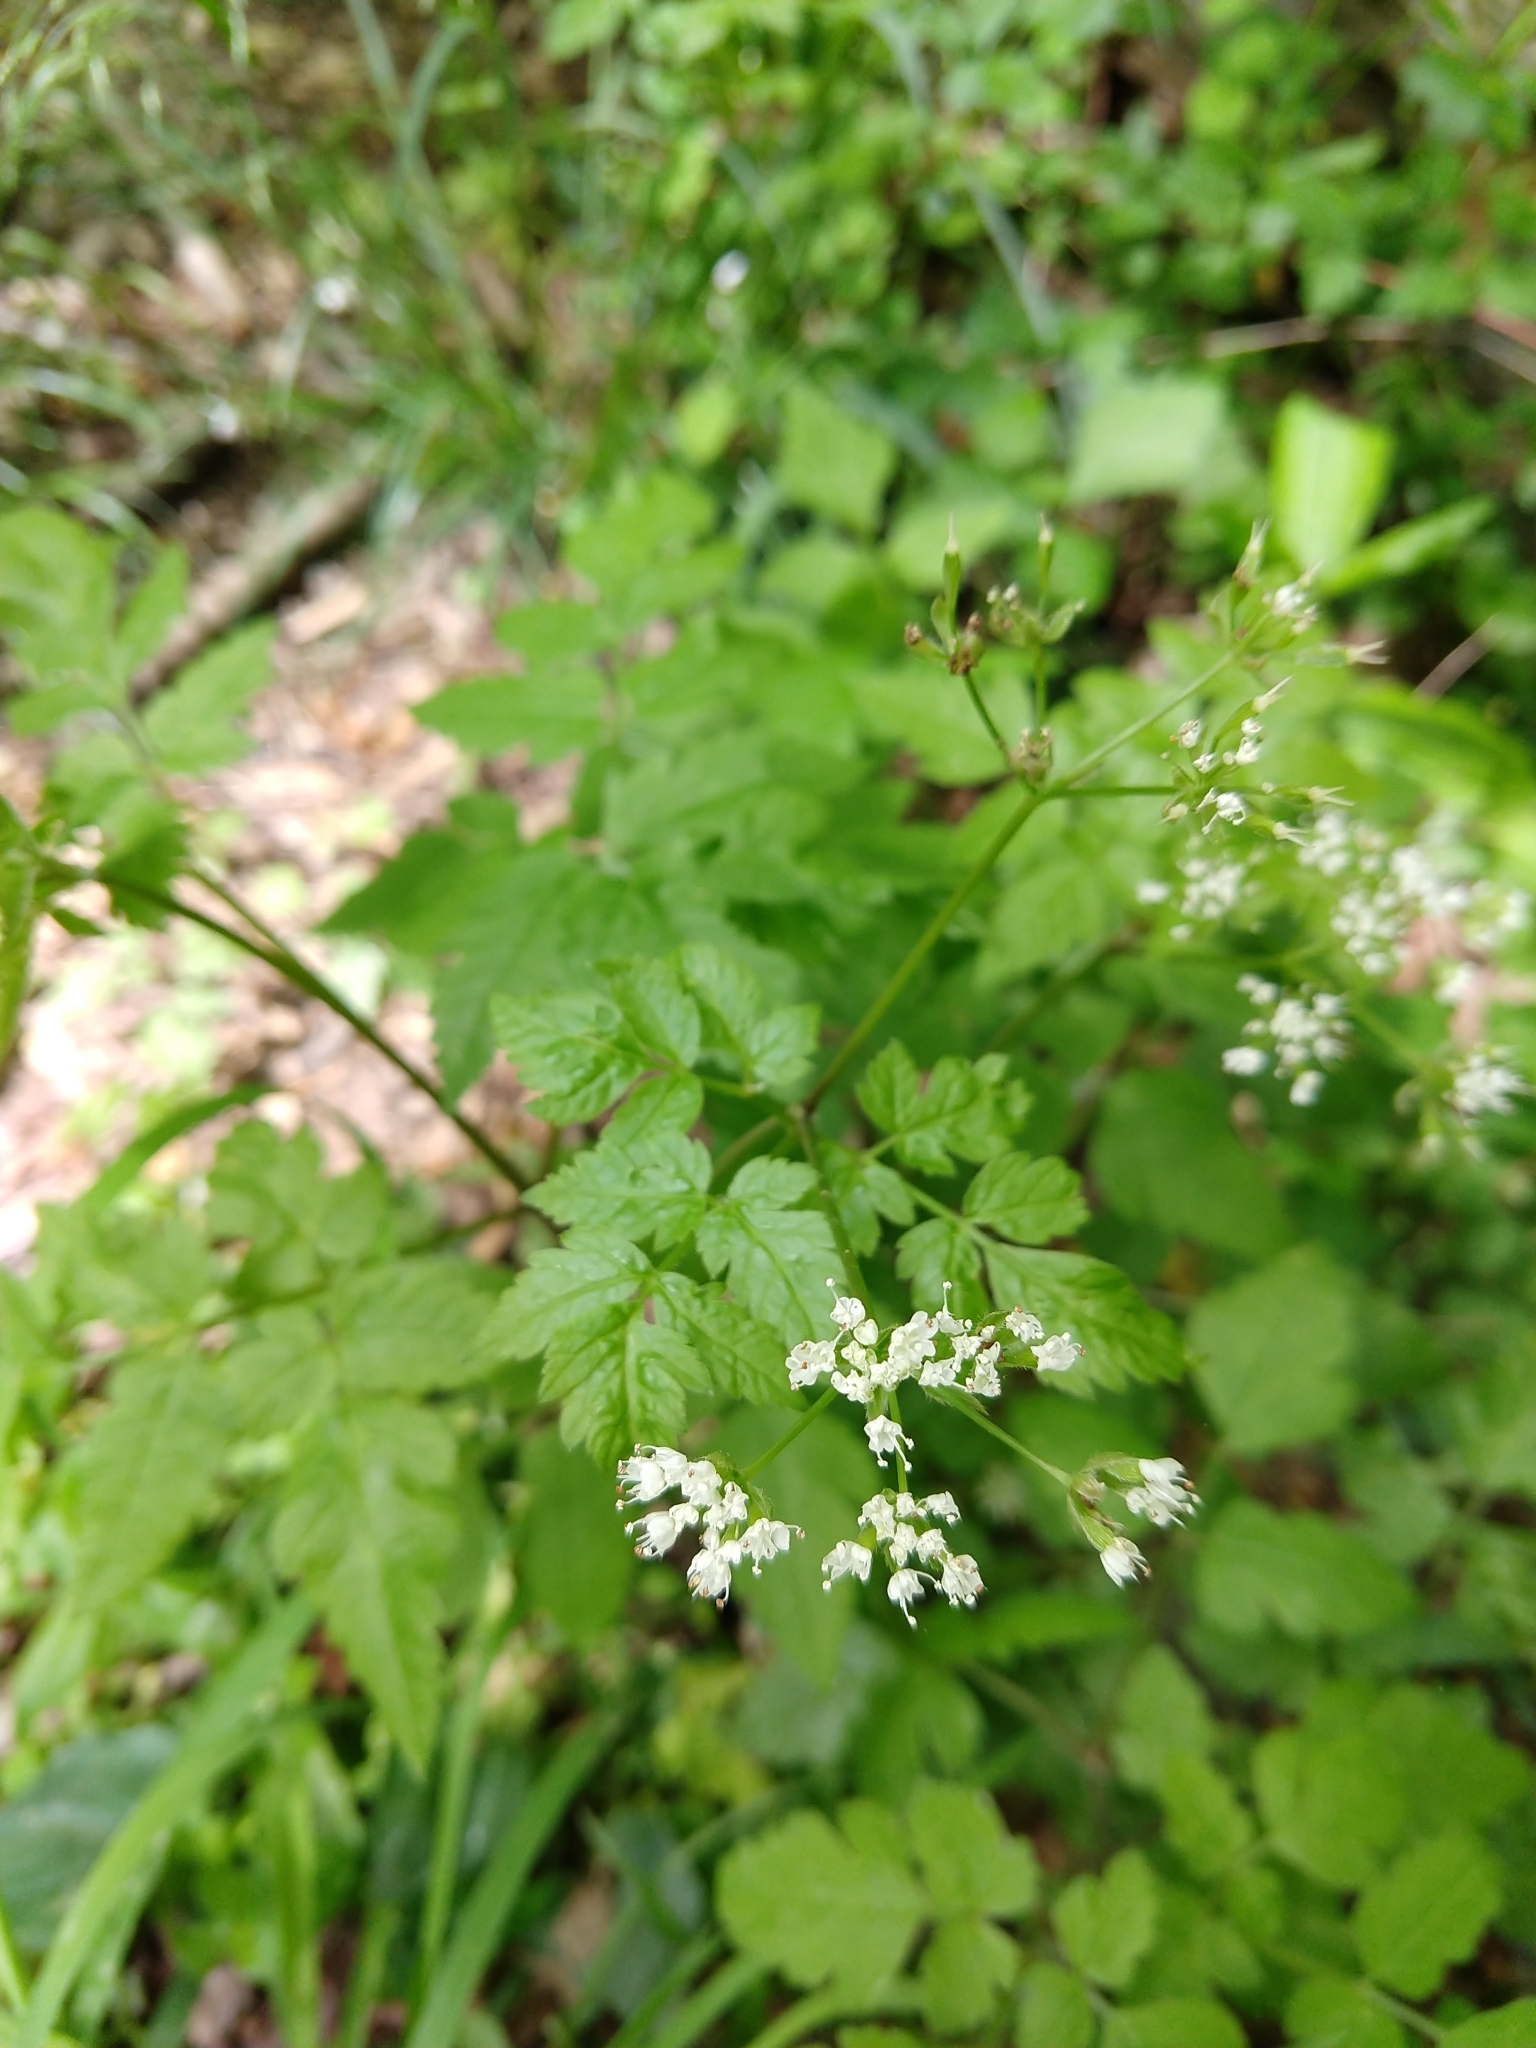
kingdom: Plantae
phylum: Tracheophyta
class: Magnoliopsida
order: Apiales
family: Apiaceae
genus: Osmorhiza
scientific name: Osmorhiza longistylis
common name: Smooth sweet cicely
